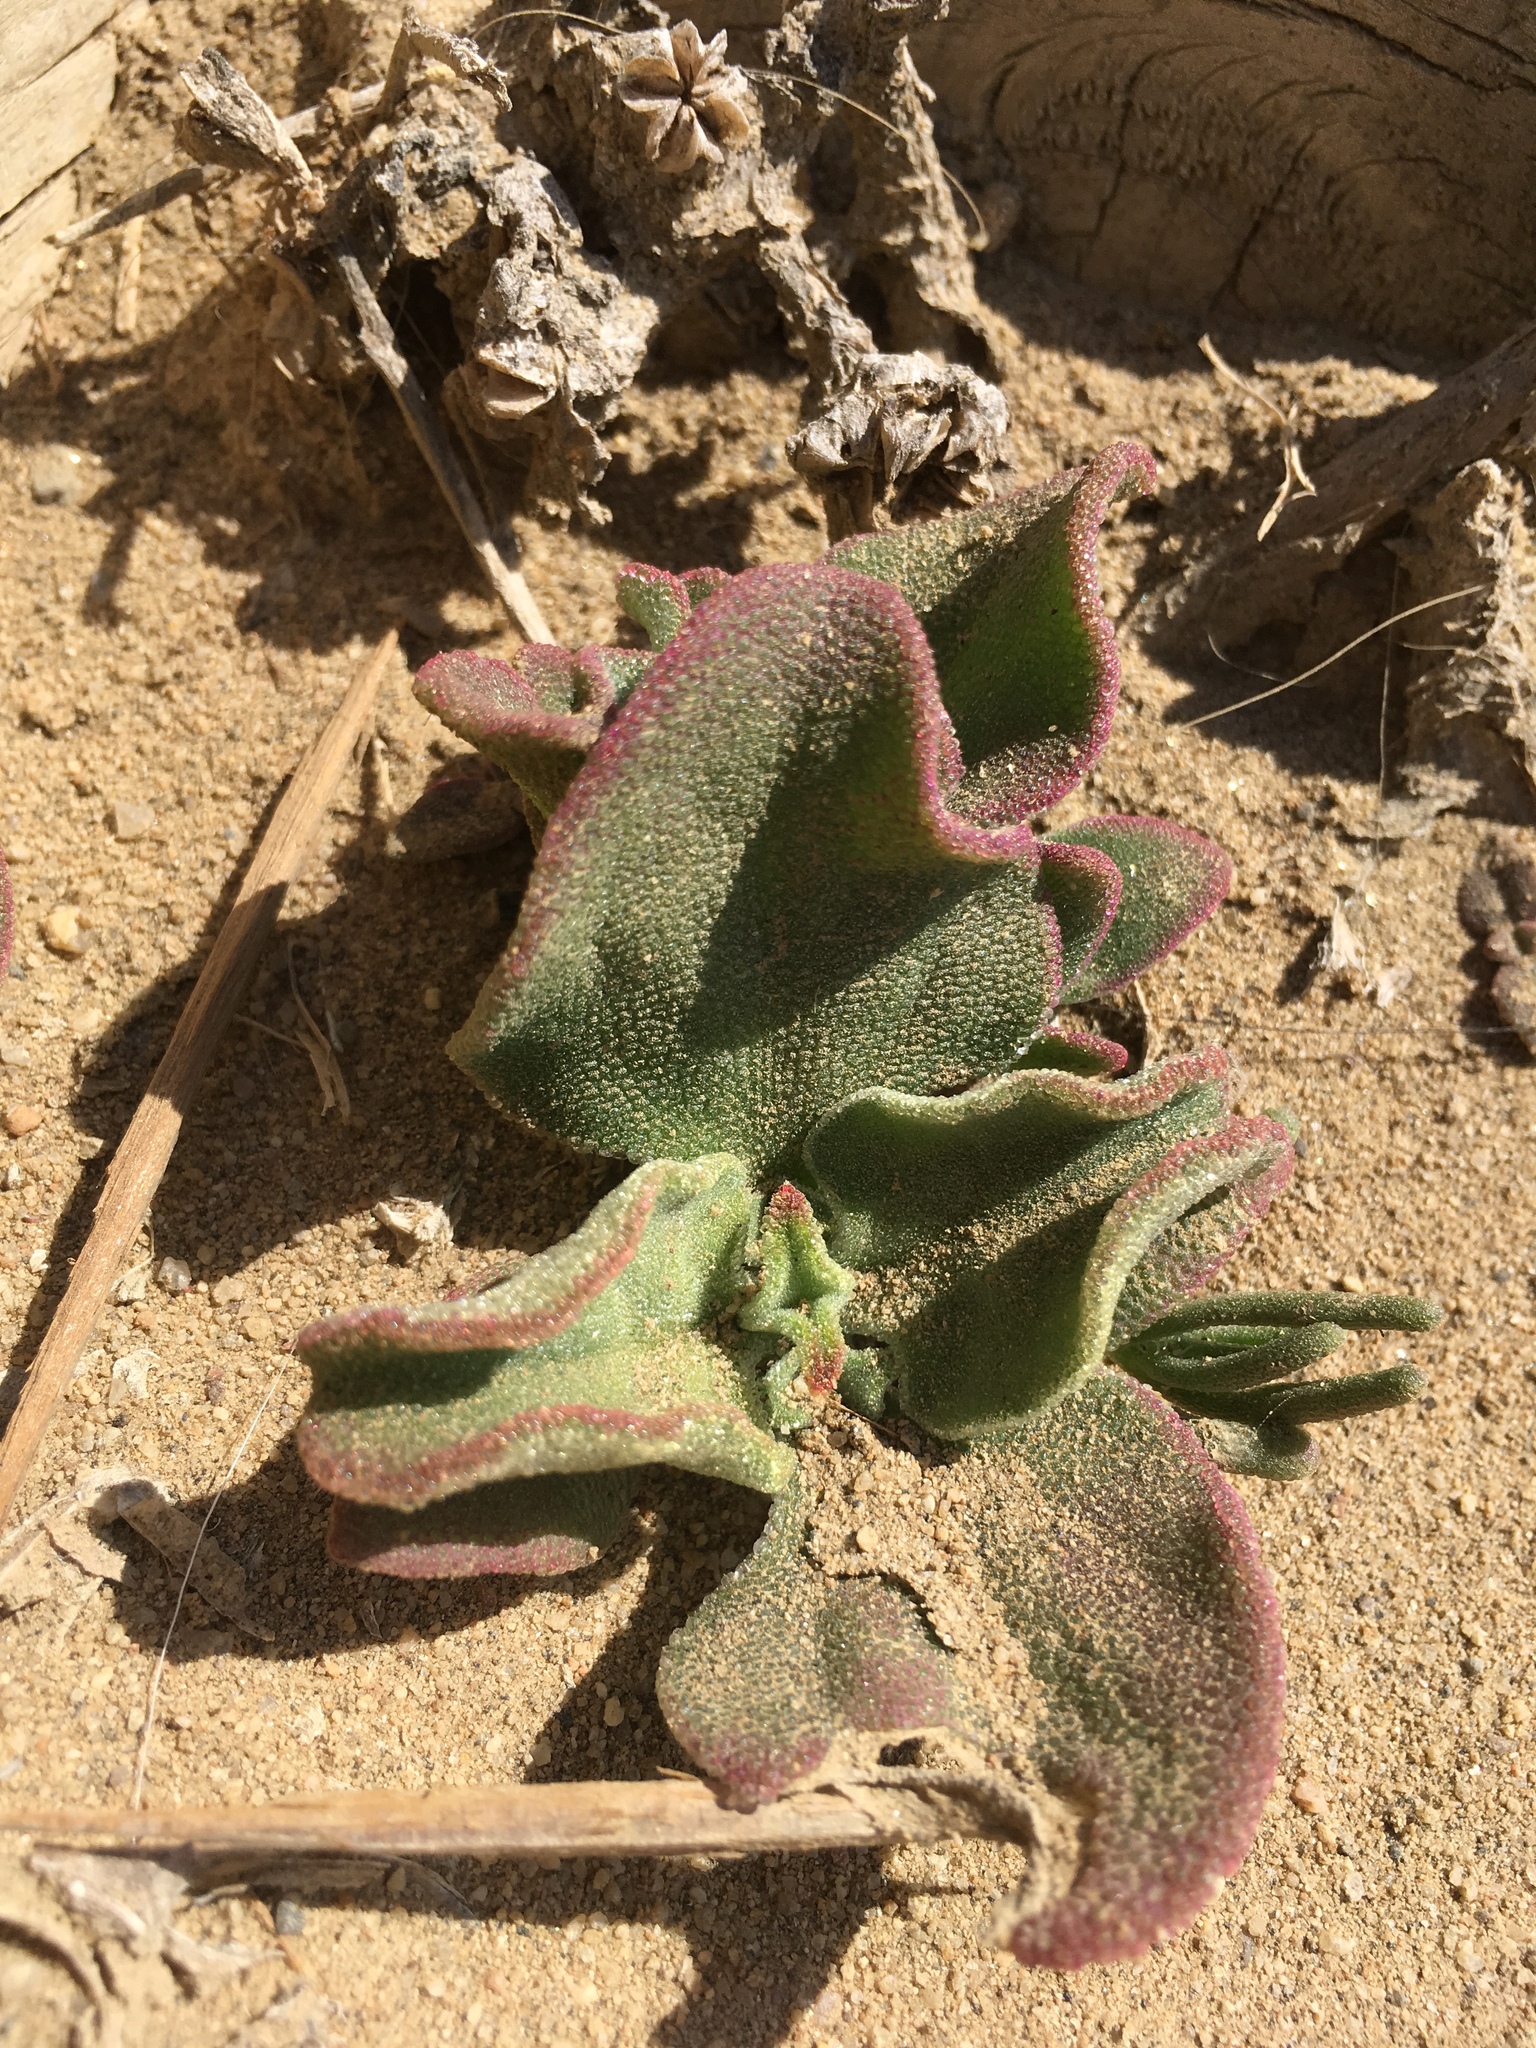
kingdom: Plantae
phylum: Tracheophyta
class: Magnoliopsida
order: Caryophyllales
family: Aizoaceae
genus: Mesembryanthemum
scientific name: Mesembryanthemum crystallinum
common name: Common iceplant
